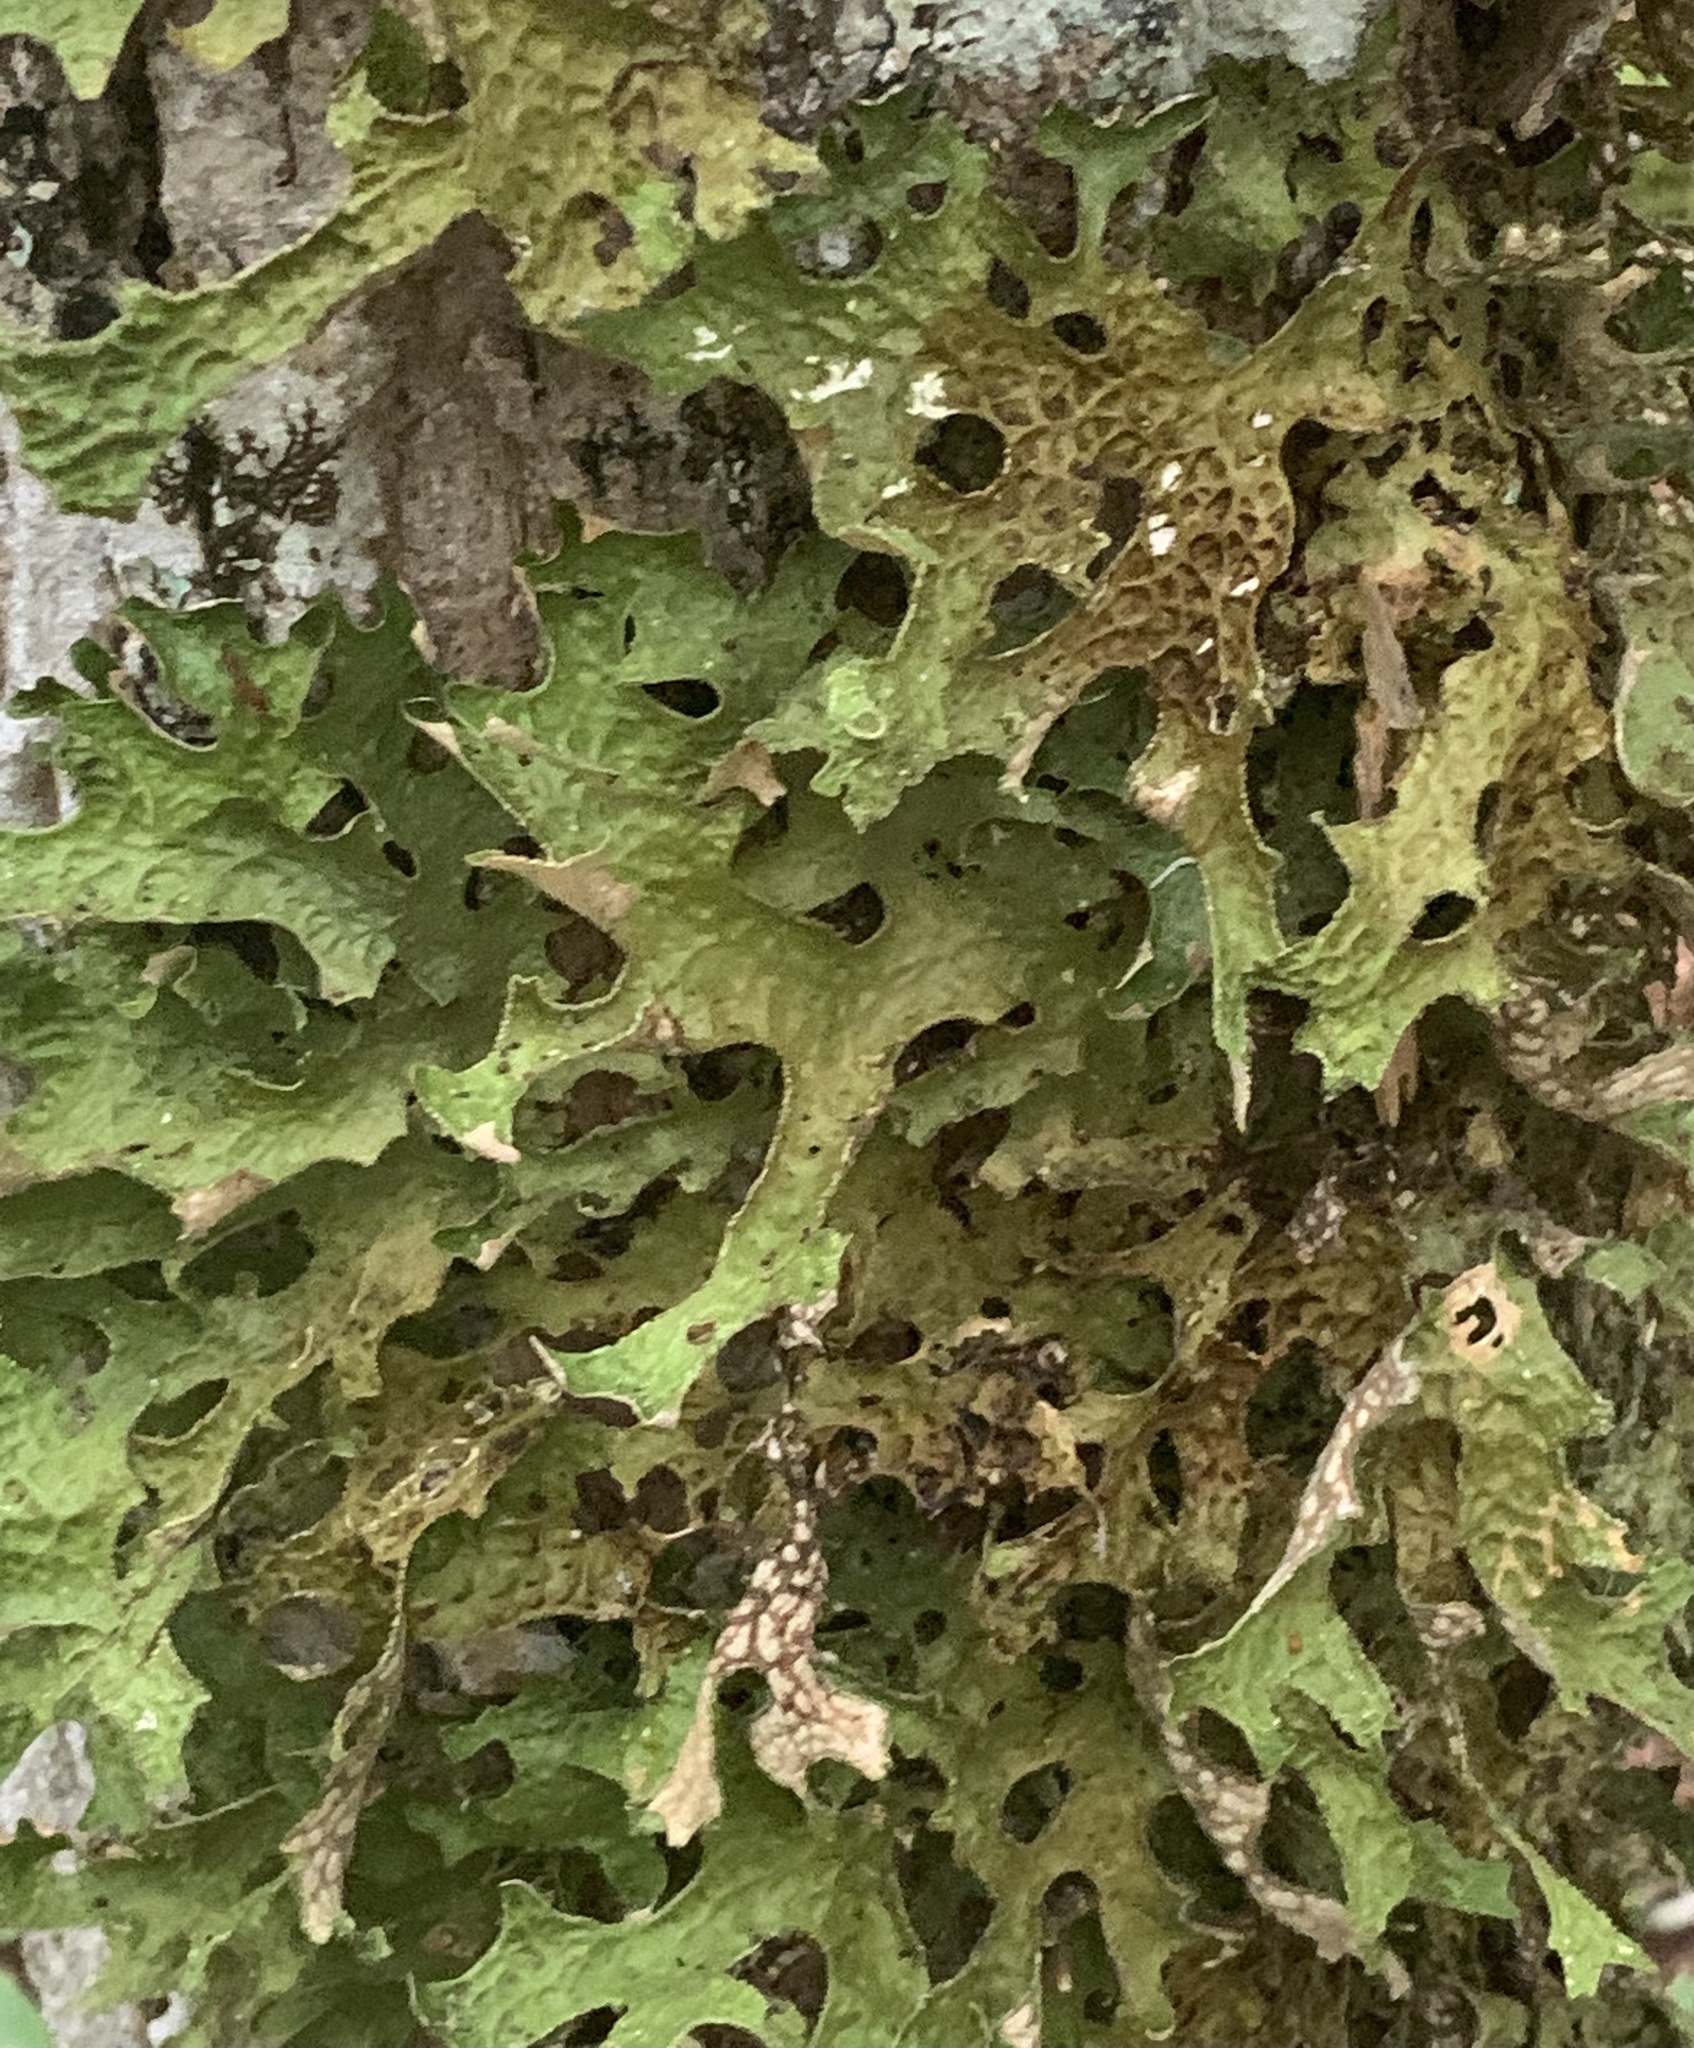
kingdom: Fungi
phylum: Ascomycota
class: Lecanoromycetes
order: Peltigerales
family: Lobariaceae
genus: Lobaria
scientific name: Lobaria pulmonaria
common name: Lungwort
